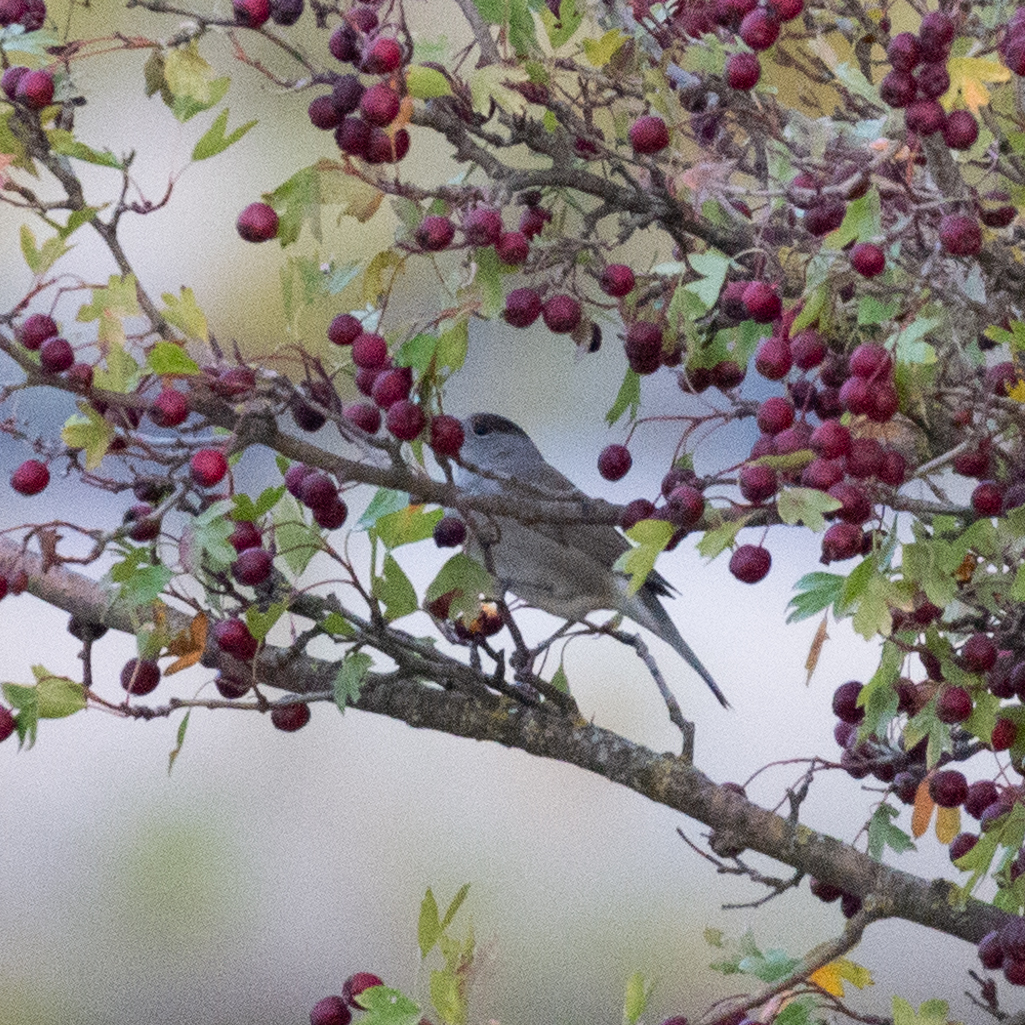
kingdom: Animalia
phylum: Chordata
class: Aves
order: Passeriformes
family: Sylviidae
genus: Sylvia
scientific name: Sylvia atricapilla
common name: Eurasian blackcap
